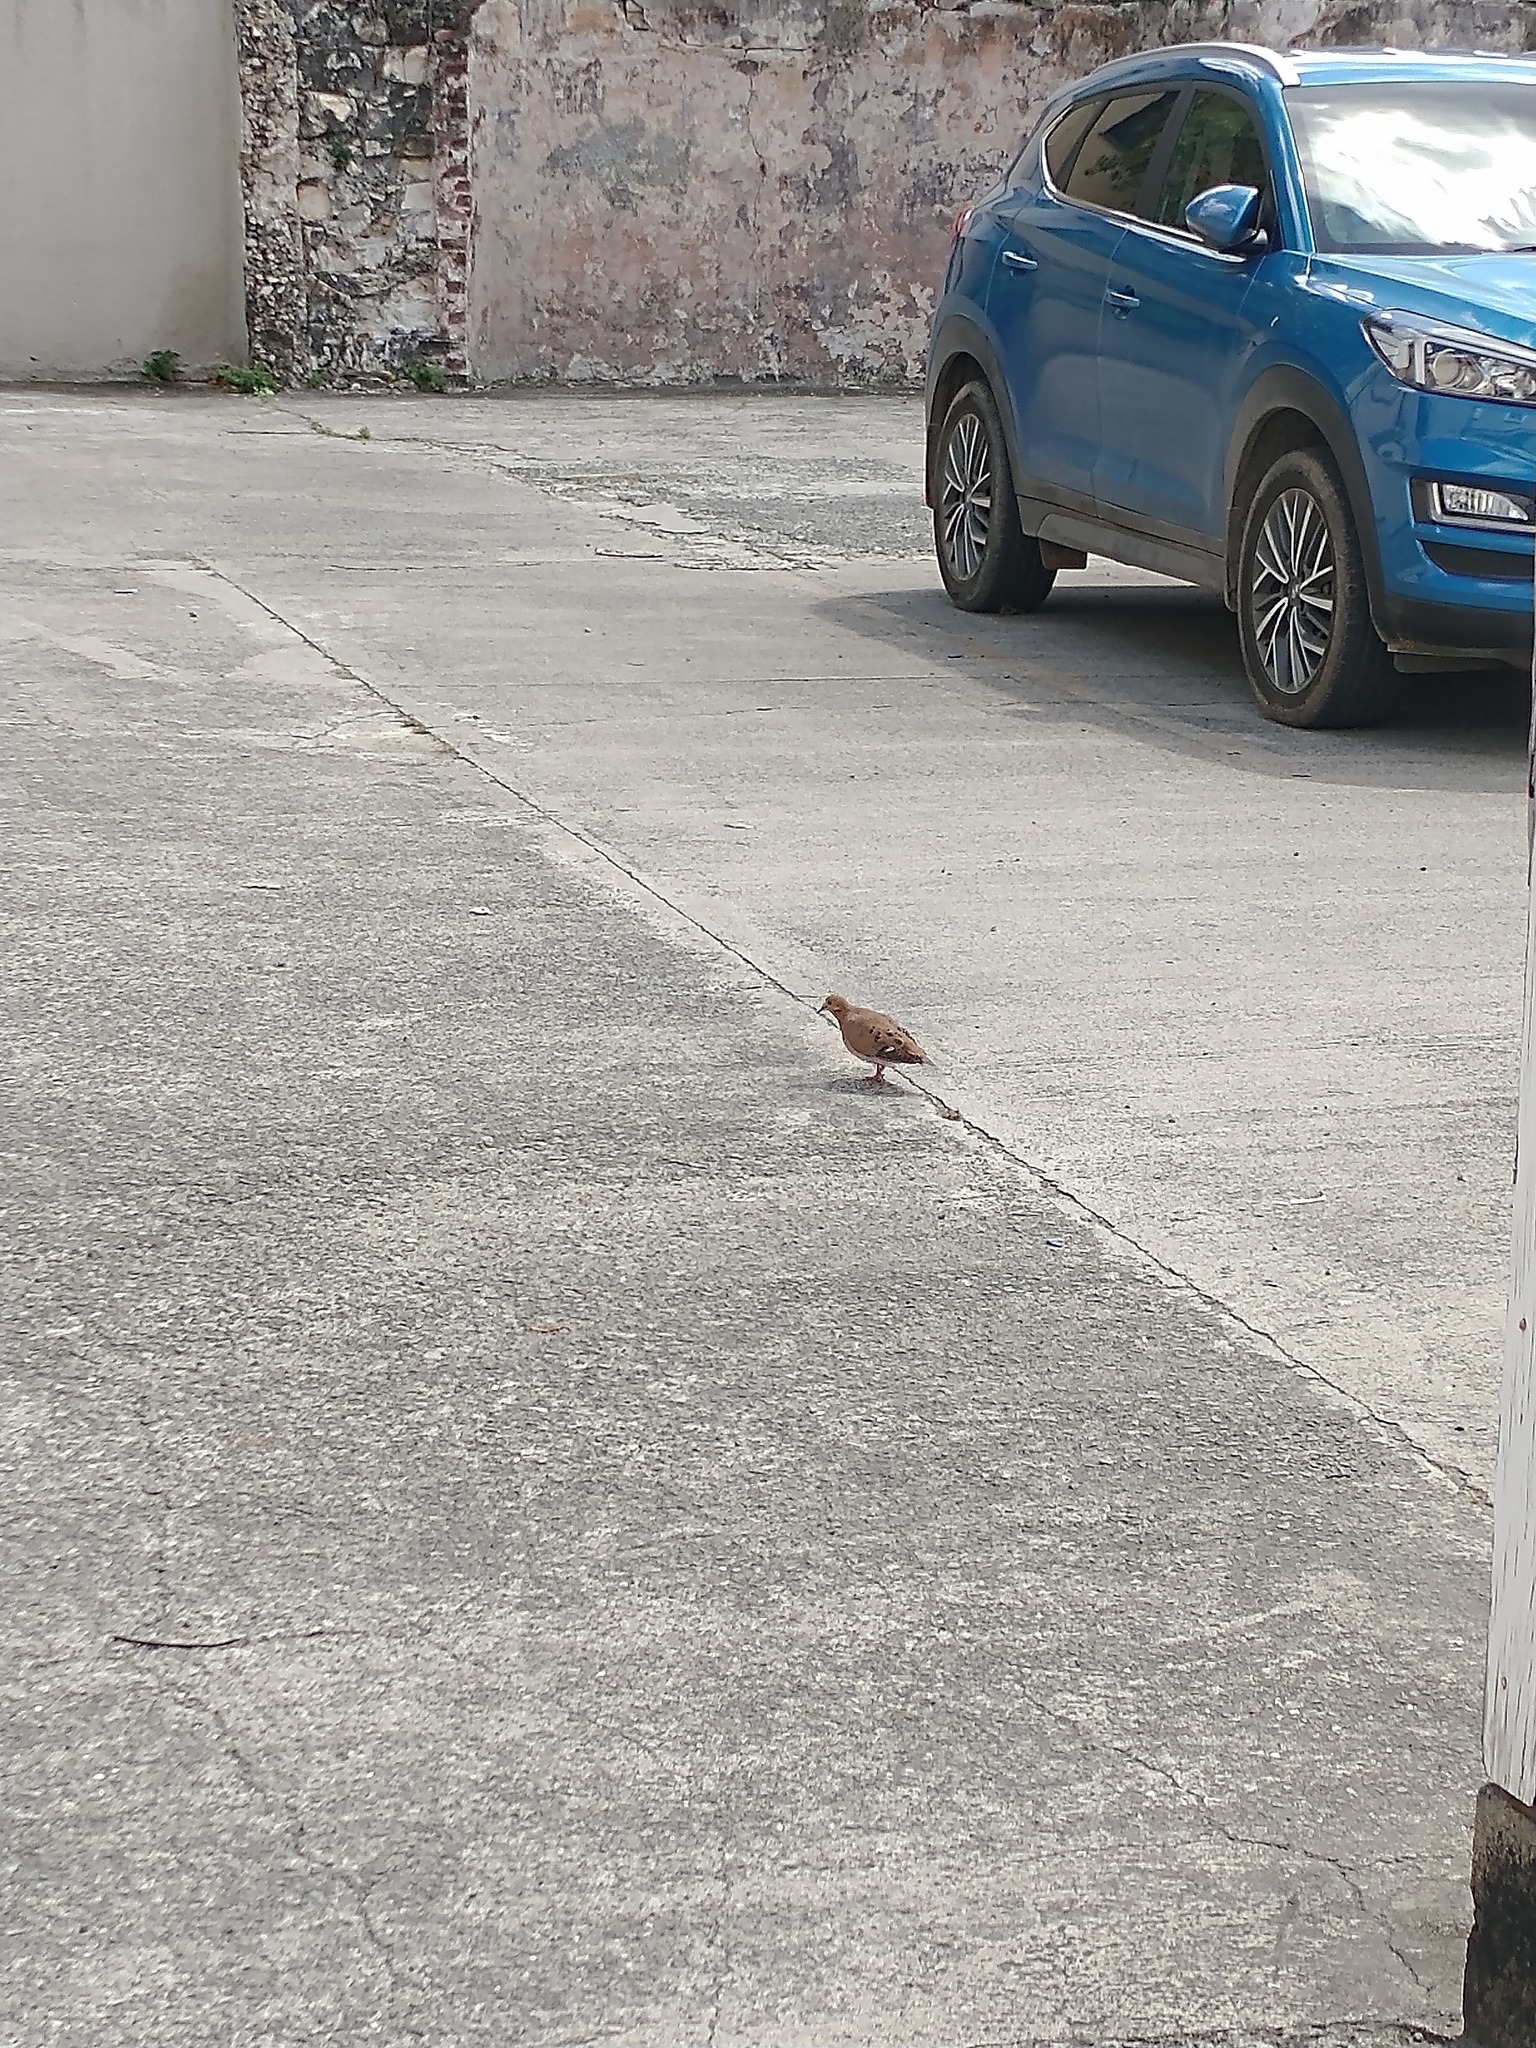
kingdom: Animalia
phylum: Chordata
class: Aves
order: Columbiformes
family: Columbidae
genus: Zenaida
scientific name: Zenaida aurita
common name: Zenaida dove
